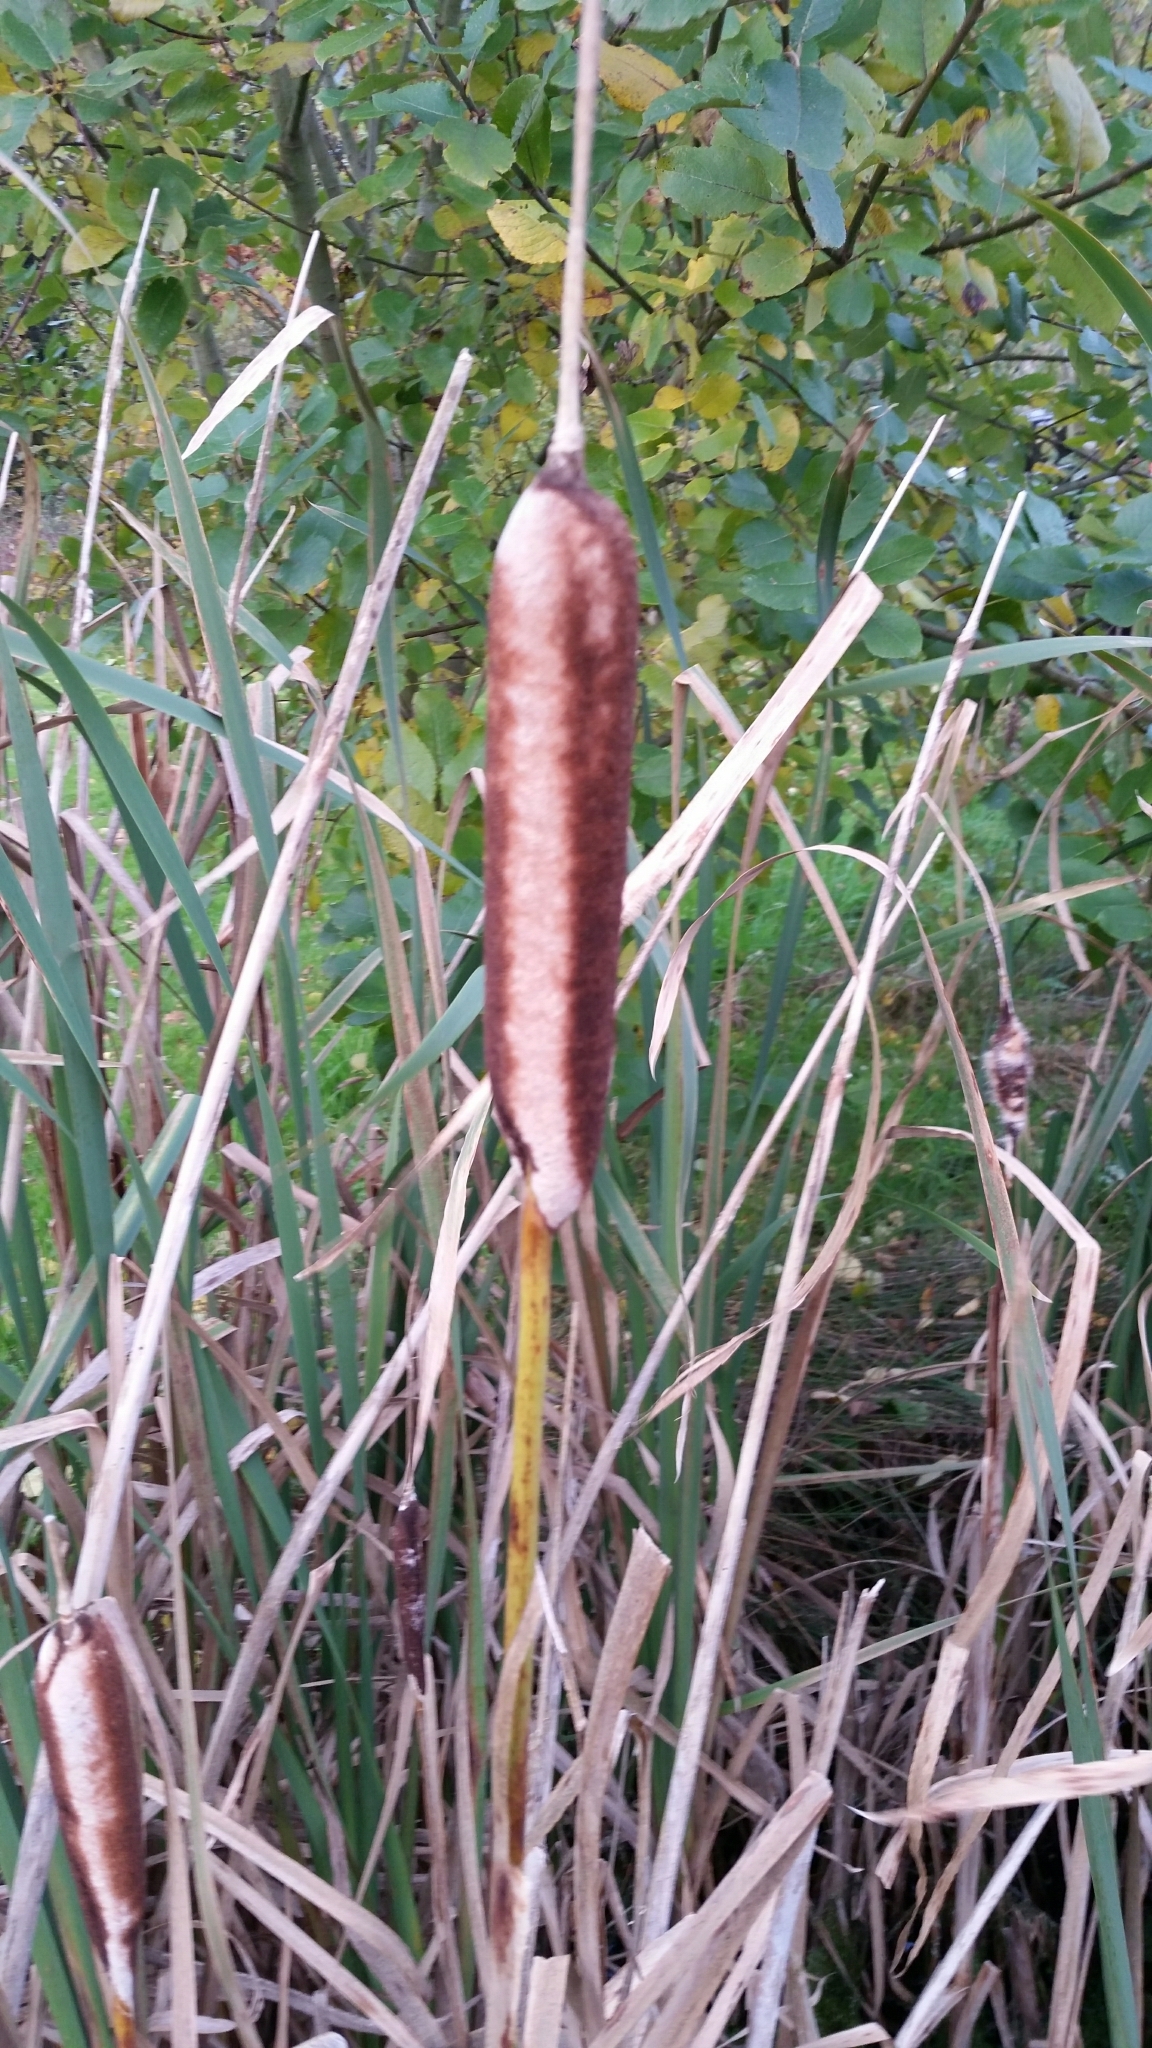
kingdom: Plantae
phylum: Tracheophyta
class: Liliopsida
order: Poales
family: Typhaceae
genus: Typha
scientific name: Typha latifolia
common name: Broadleaf cattail
